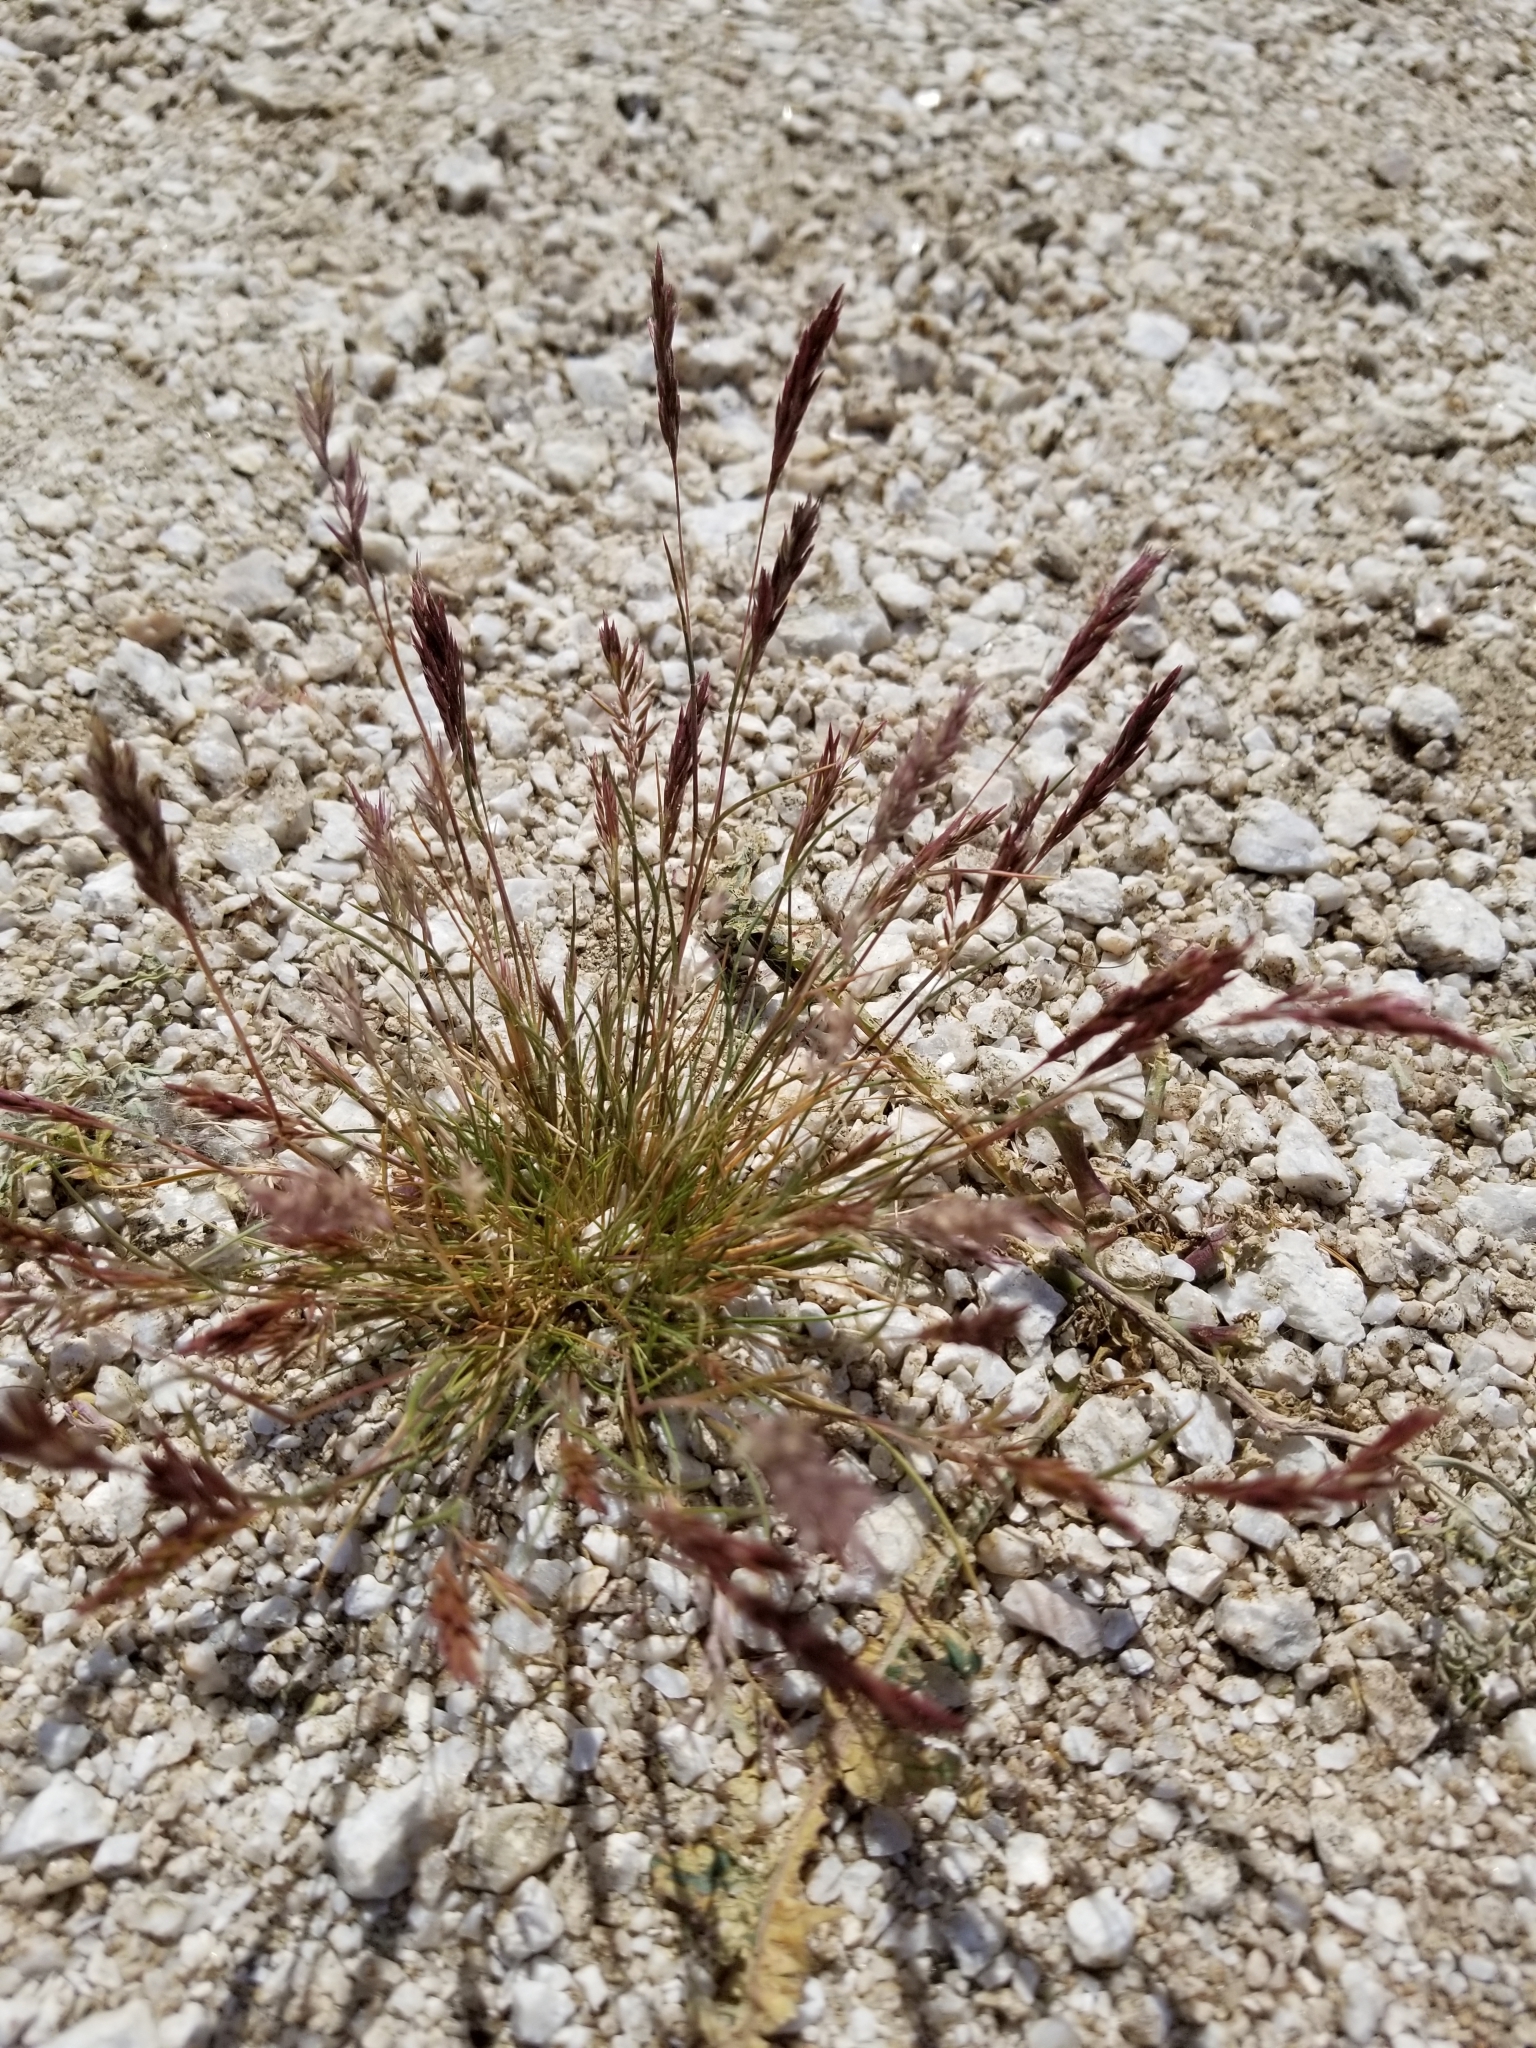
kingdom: Plantae
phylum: Tracheophyta
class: Liliopsida
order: Poales
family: Poaceae
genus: Schismus
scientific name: Schismus barbatus
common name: Kelch-grass
